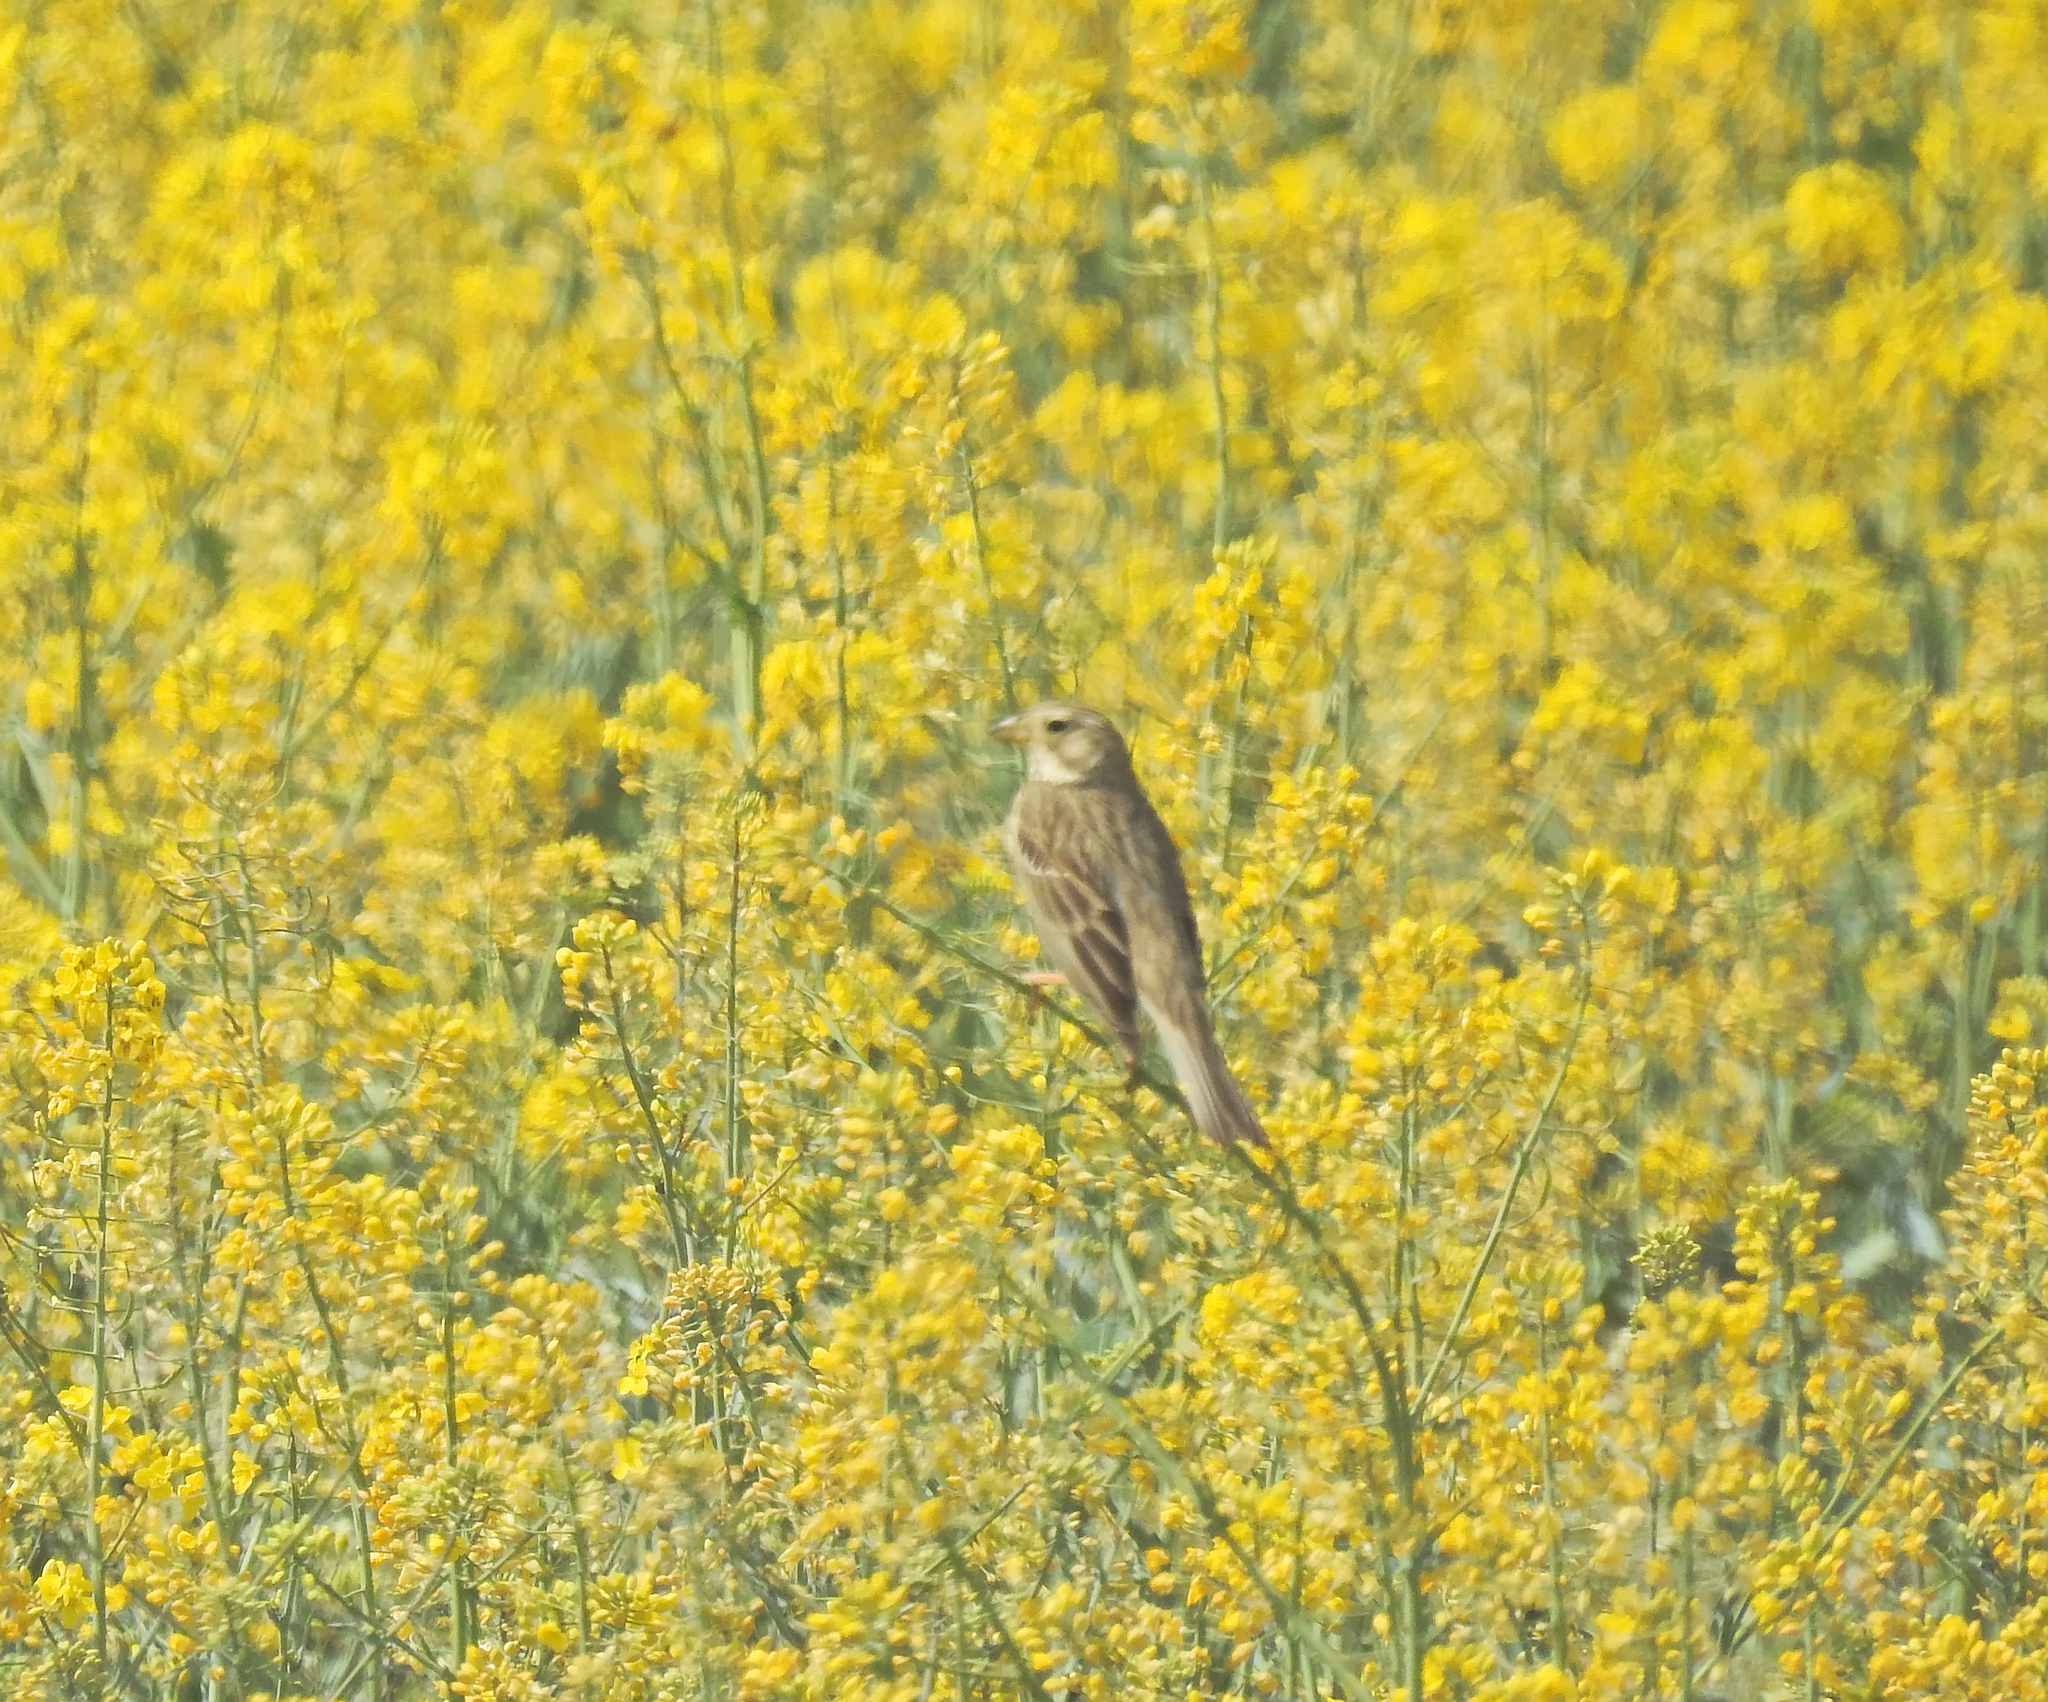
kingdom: Animalia
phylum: Chordata
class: Aves
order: Passeriformes
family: Emberizidae
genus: Emberiza
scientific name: Emberiza calandra
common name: Corn bunting
